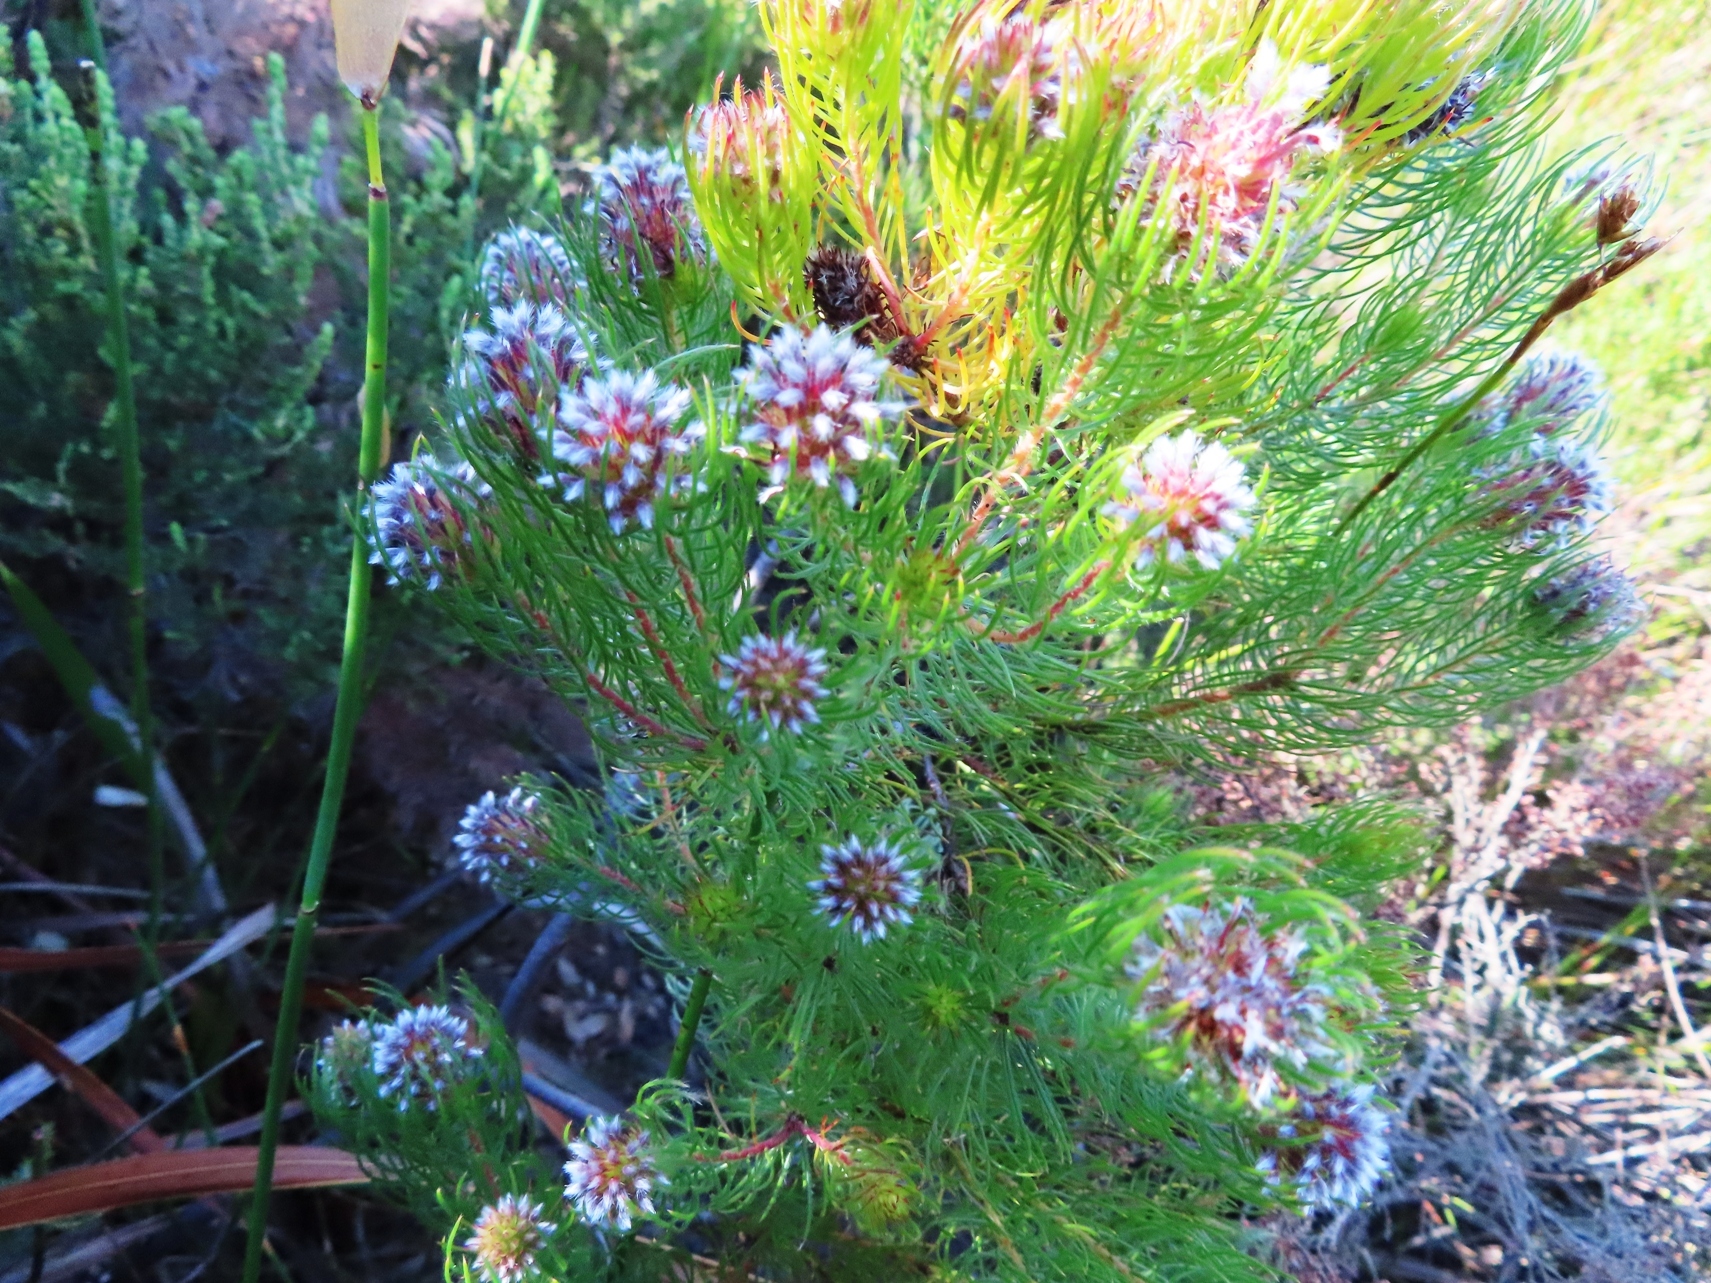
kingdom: Plantae
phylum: Tracheophyta
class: Magnoliopsida
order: Proteales
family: Proteaceae
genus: Spatalla
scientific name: Spatalla setacea
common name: Needle-leaf spoon
